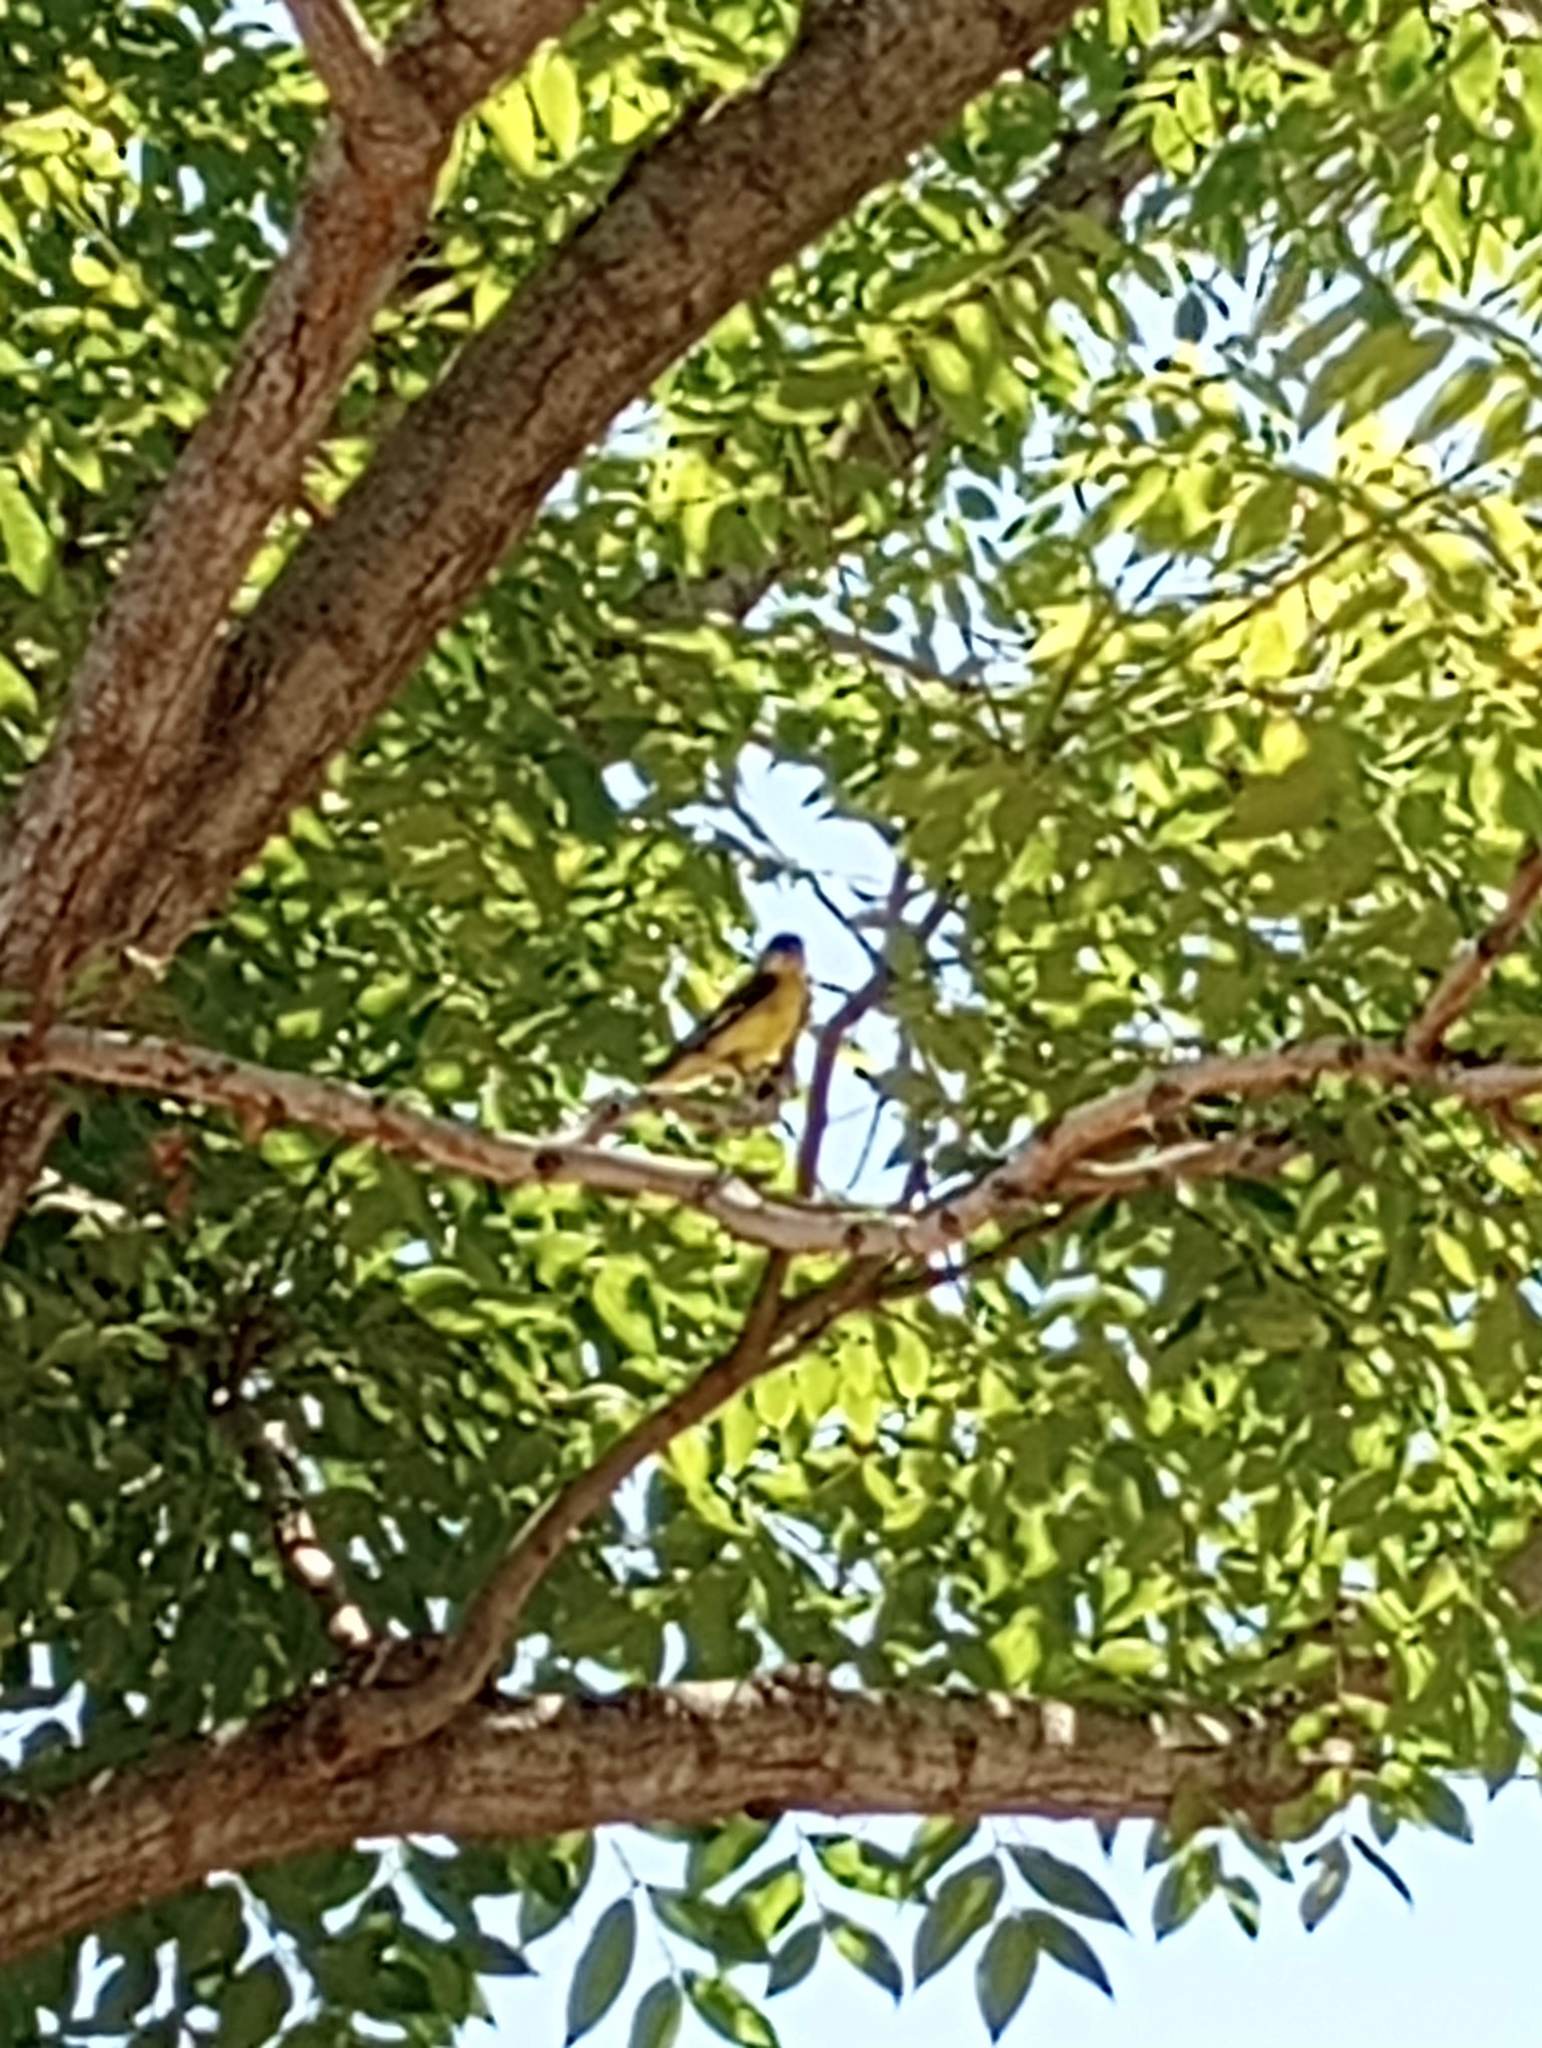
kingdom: Animalia
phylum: Chordata
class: Aves
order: Passeriformes
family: Fringillidae
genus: Spinus
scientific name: Spinus psaltria
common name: Lesser goldfinch
